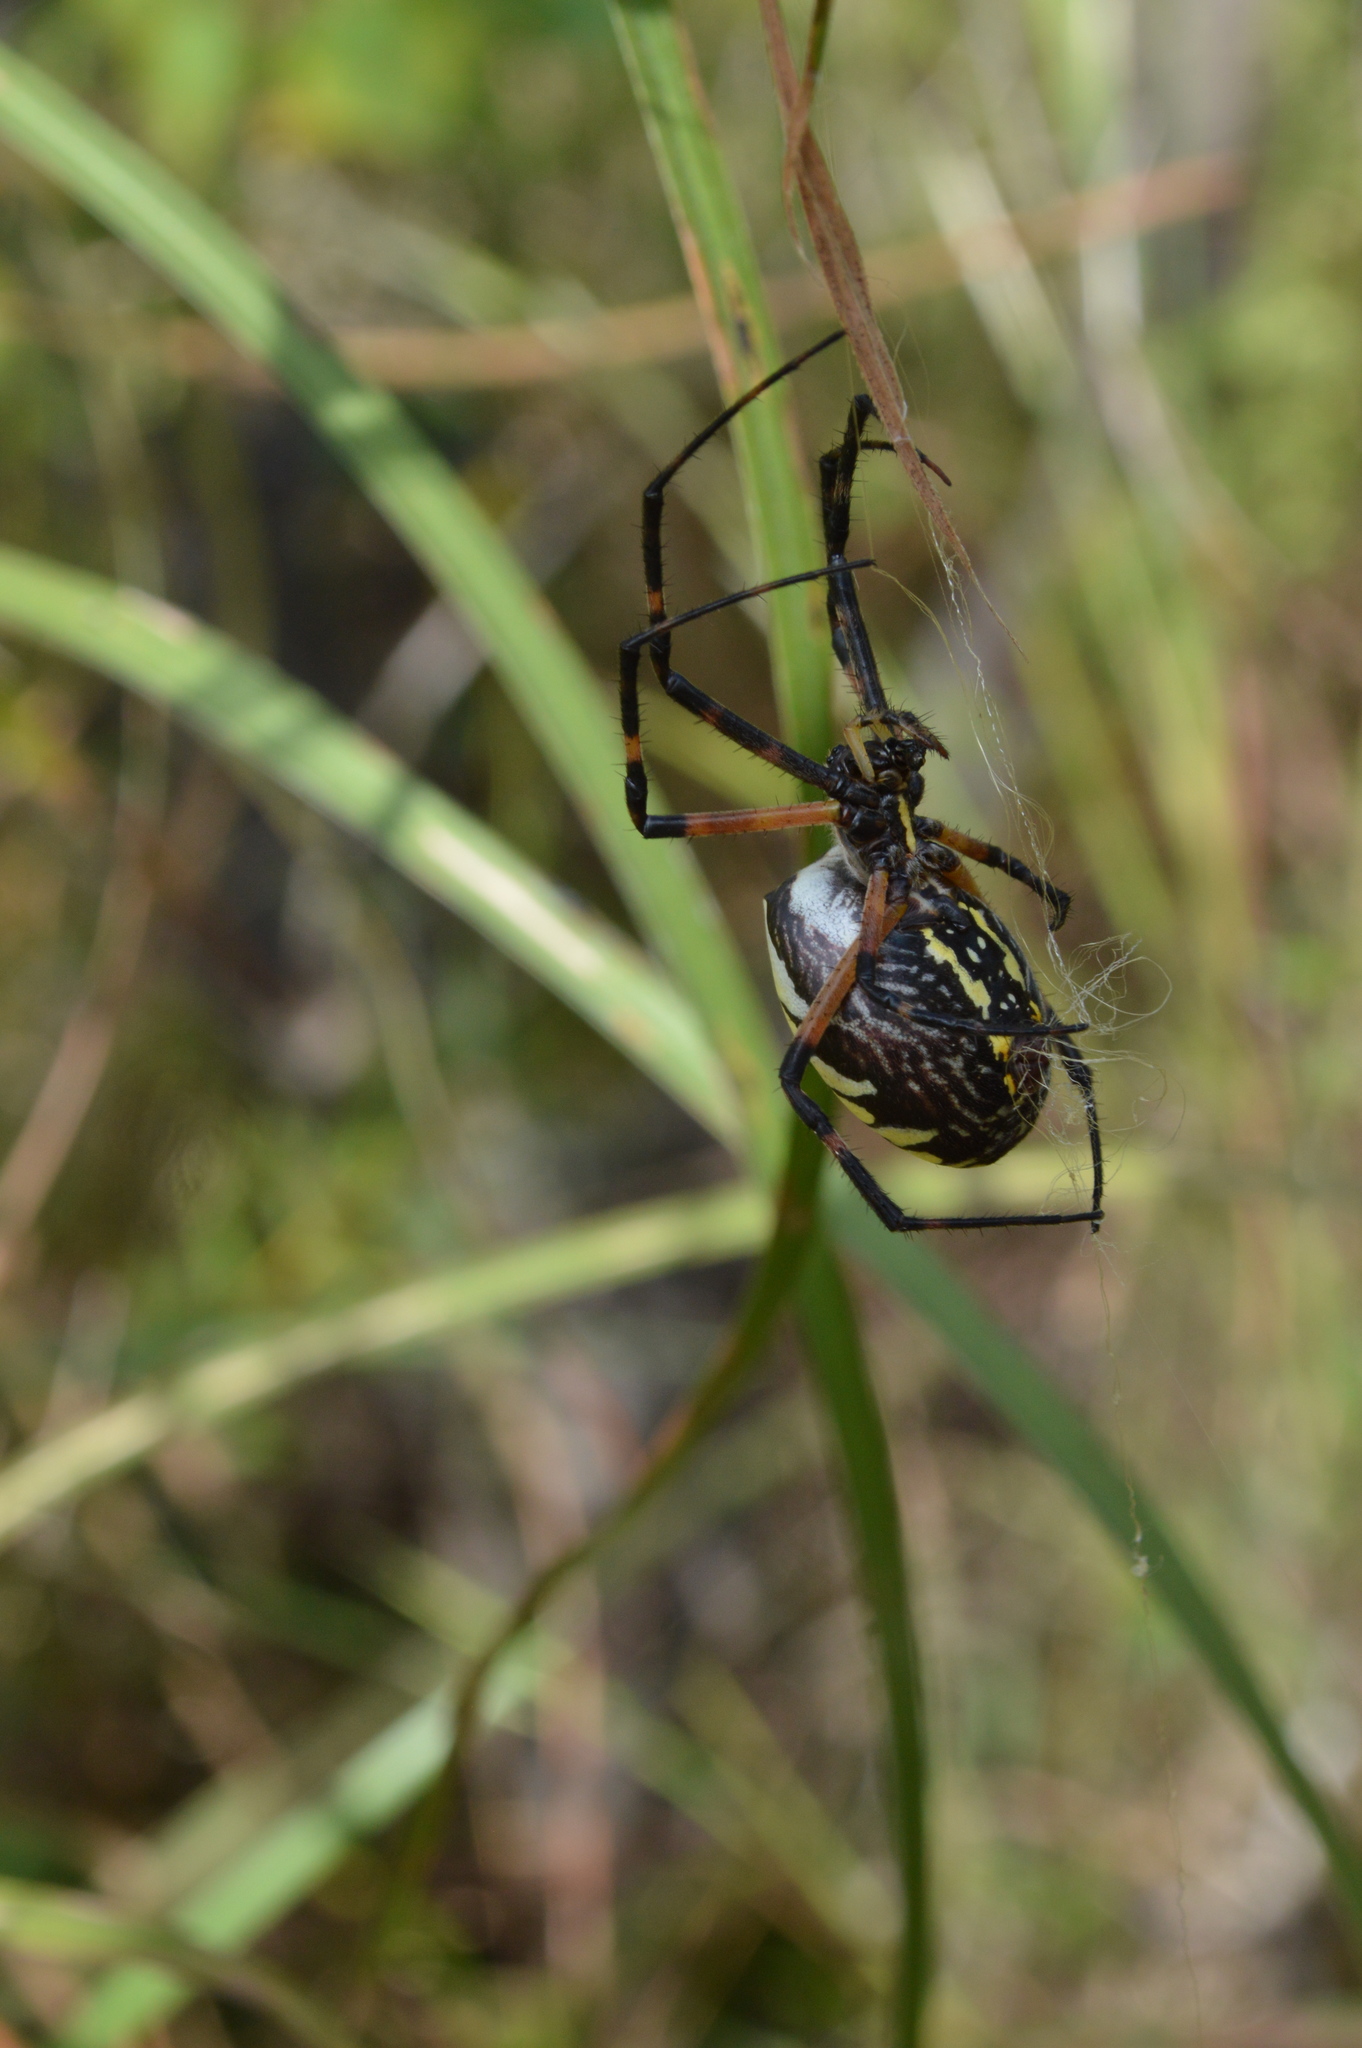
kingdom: Animalia
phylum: Arthropoda
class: Arachnida
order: Araneae
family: Araneidae
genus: Argiope
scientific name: Argiope aurantia
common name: Orb weavers
